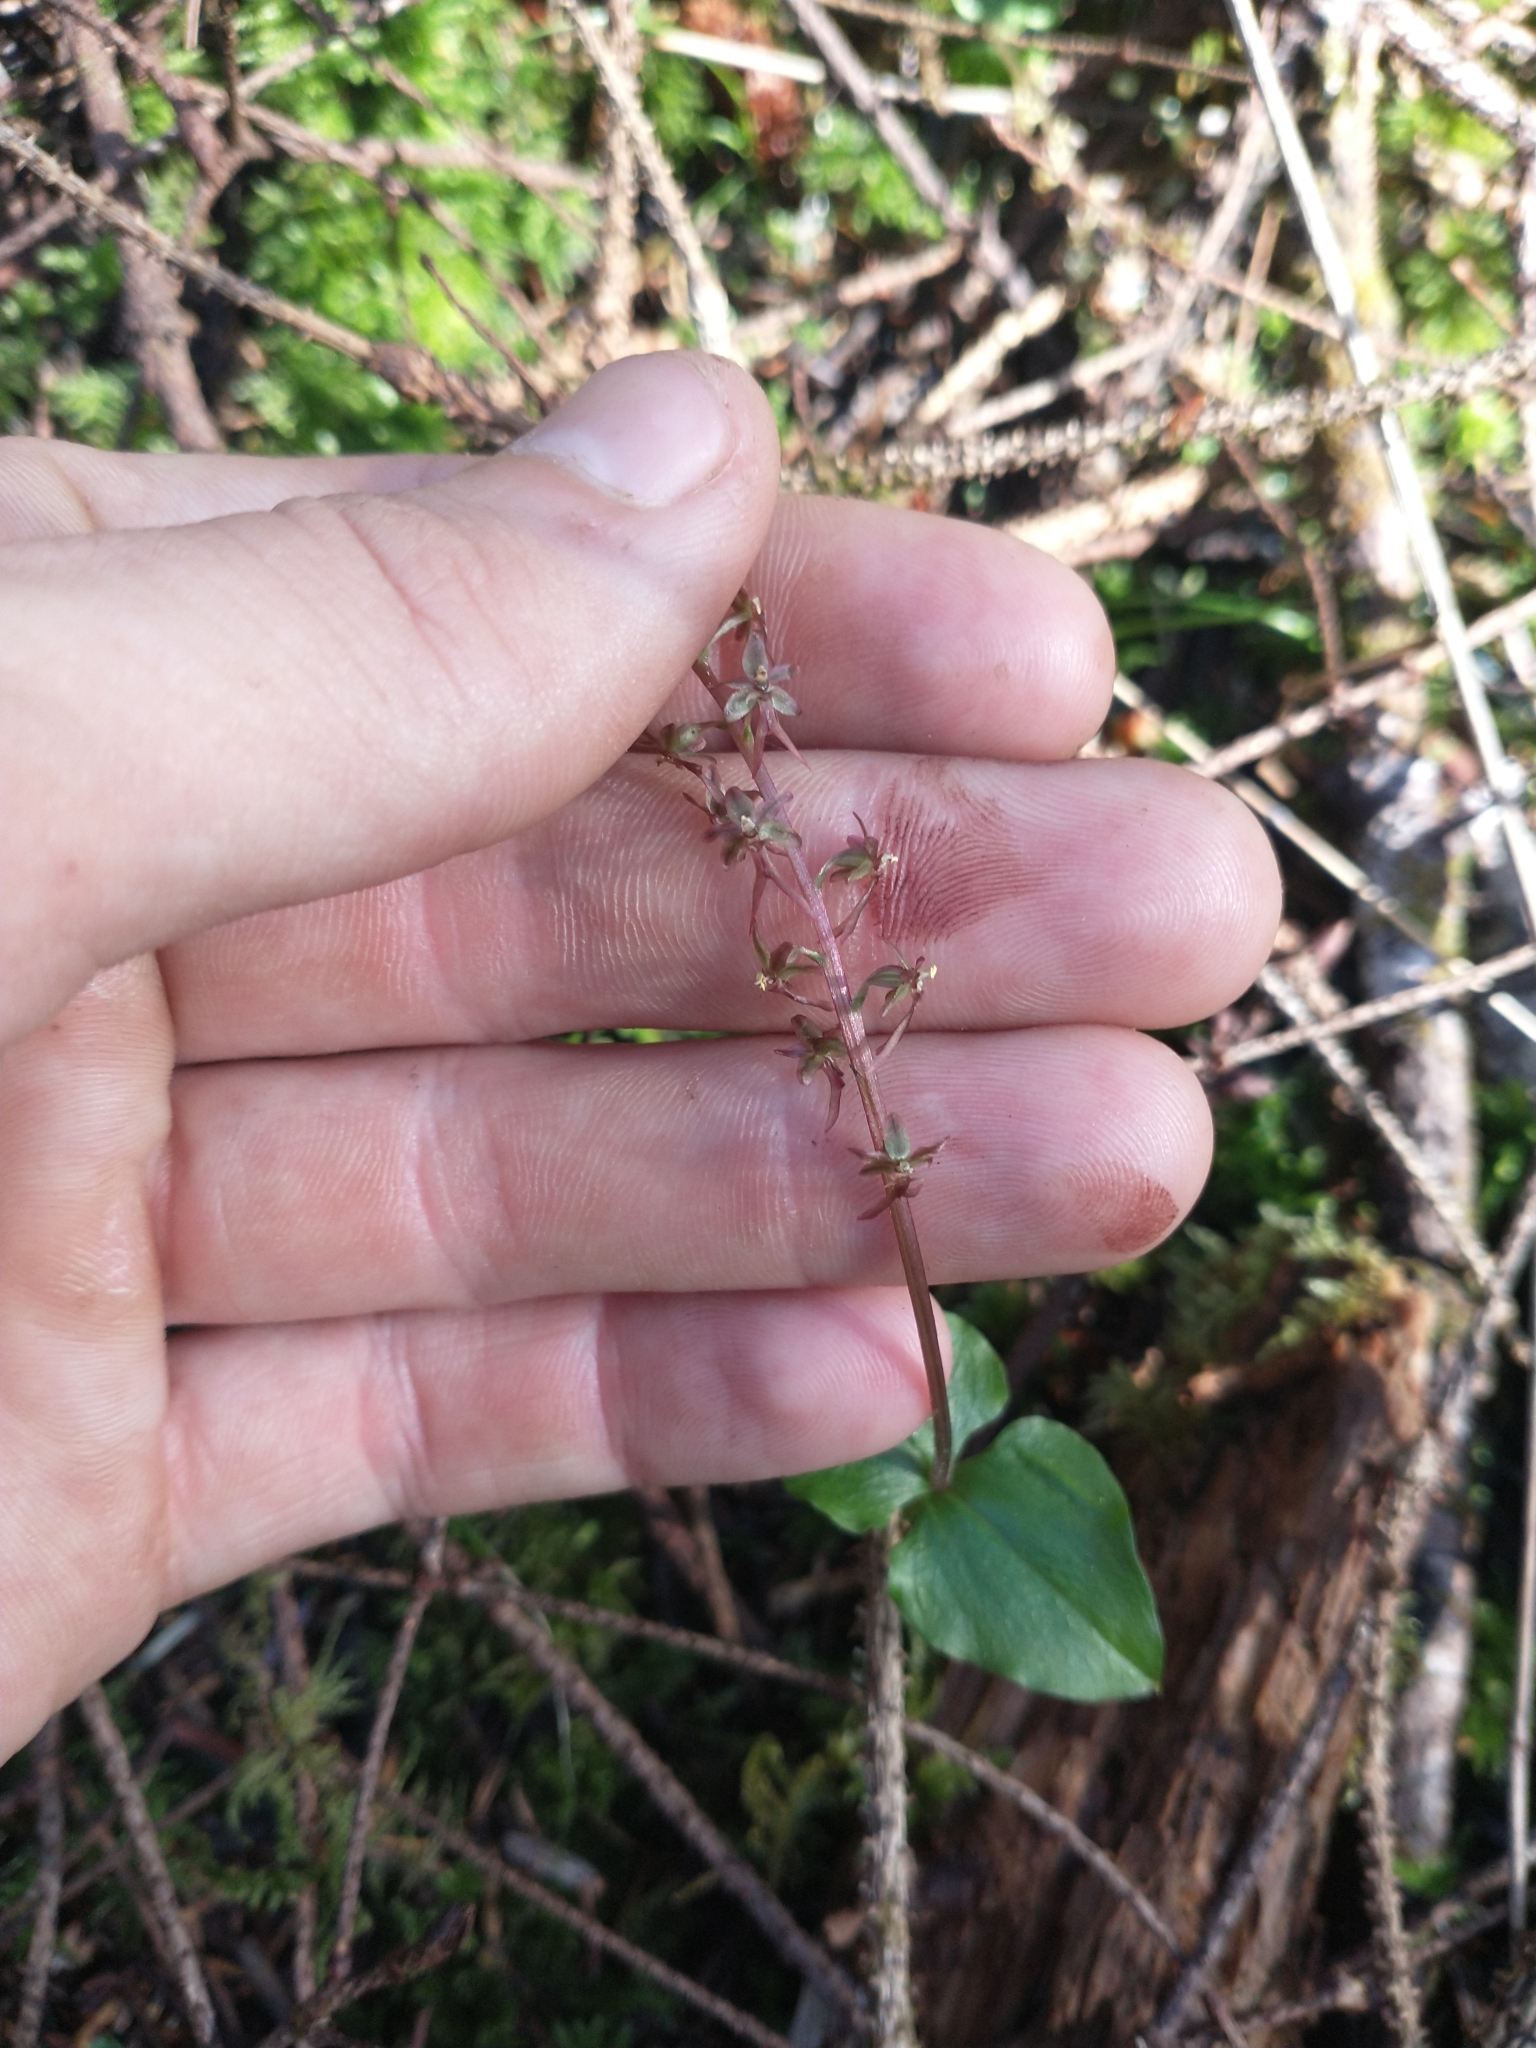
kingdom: Plantae
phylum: Tracheophyta
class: Liliopsida
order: Asparagales
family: Orchidaceae
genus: Neottia
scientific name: Neottia cordata
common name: Lesser twayblade
